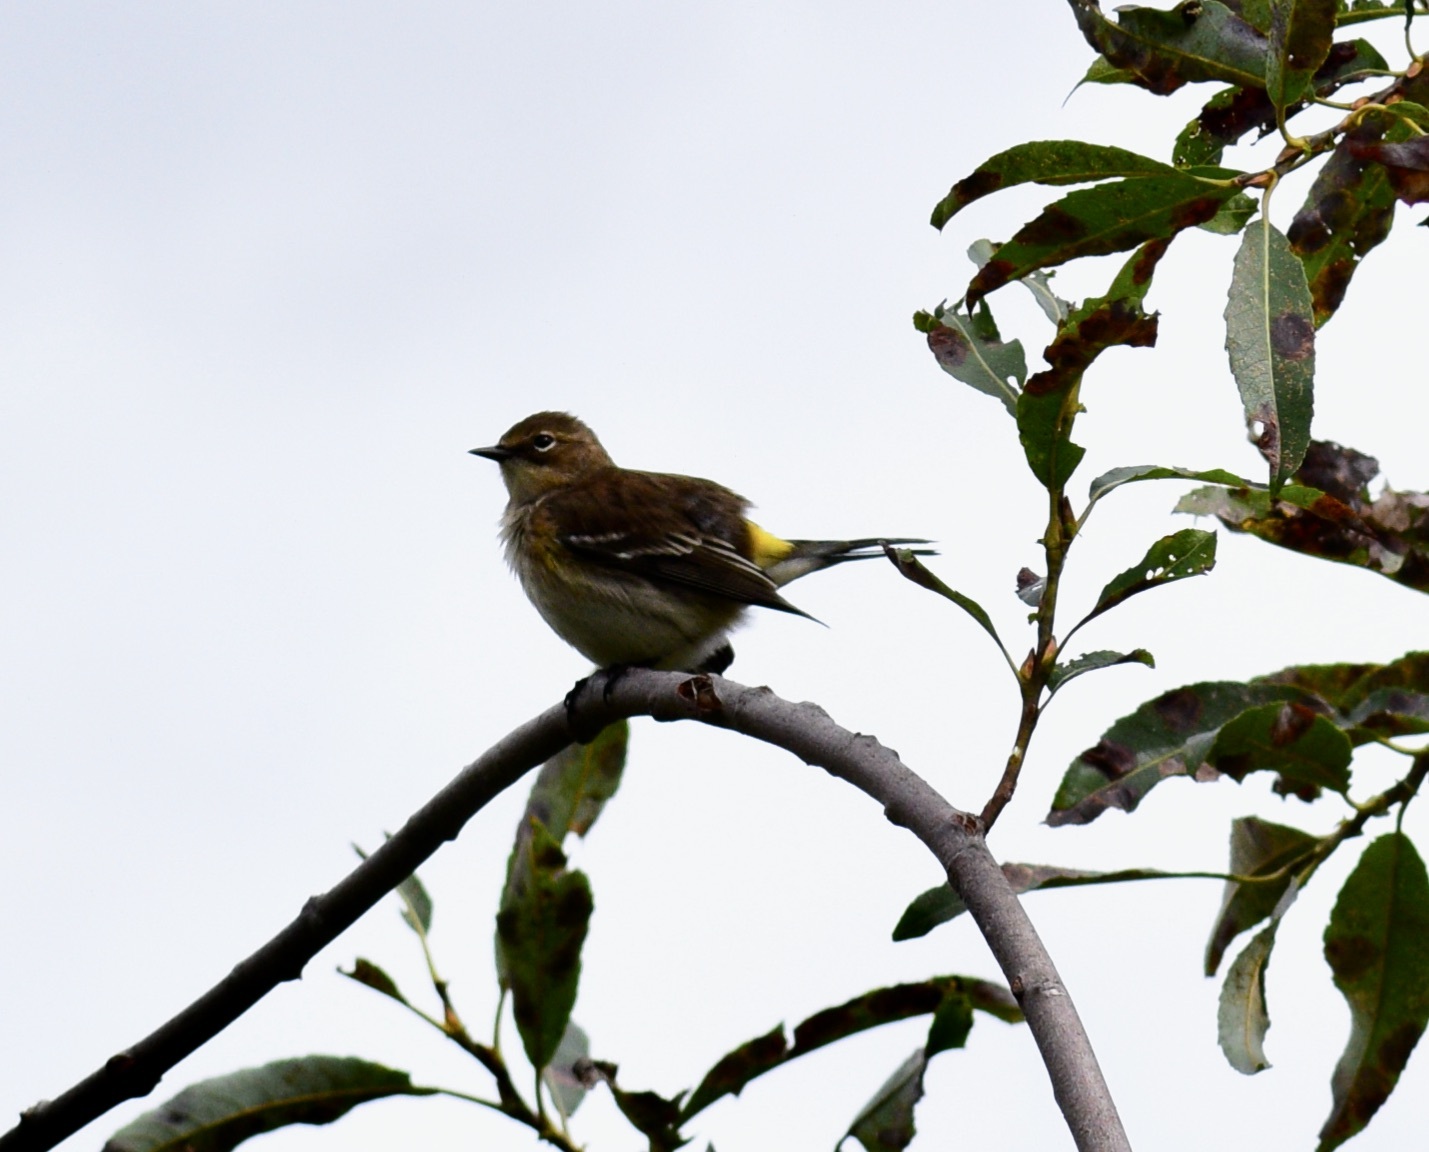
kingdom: Animalia
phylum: Chordata
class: Aves
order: Passeriformes
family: Parulidae
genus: Setophaga
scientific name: Setophaga coronata
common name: Myrtle warbler
